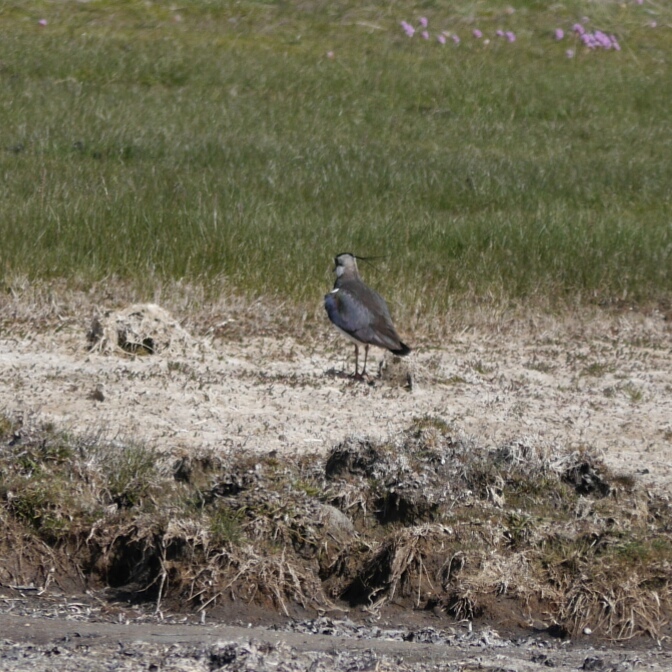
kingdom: Animalia
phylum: Chordata
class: Aves
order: Charadriiformes
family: Charadriidae
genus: Vanellus
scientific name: Vanellus vanellus
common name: Northern lapwing
